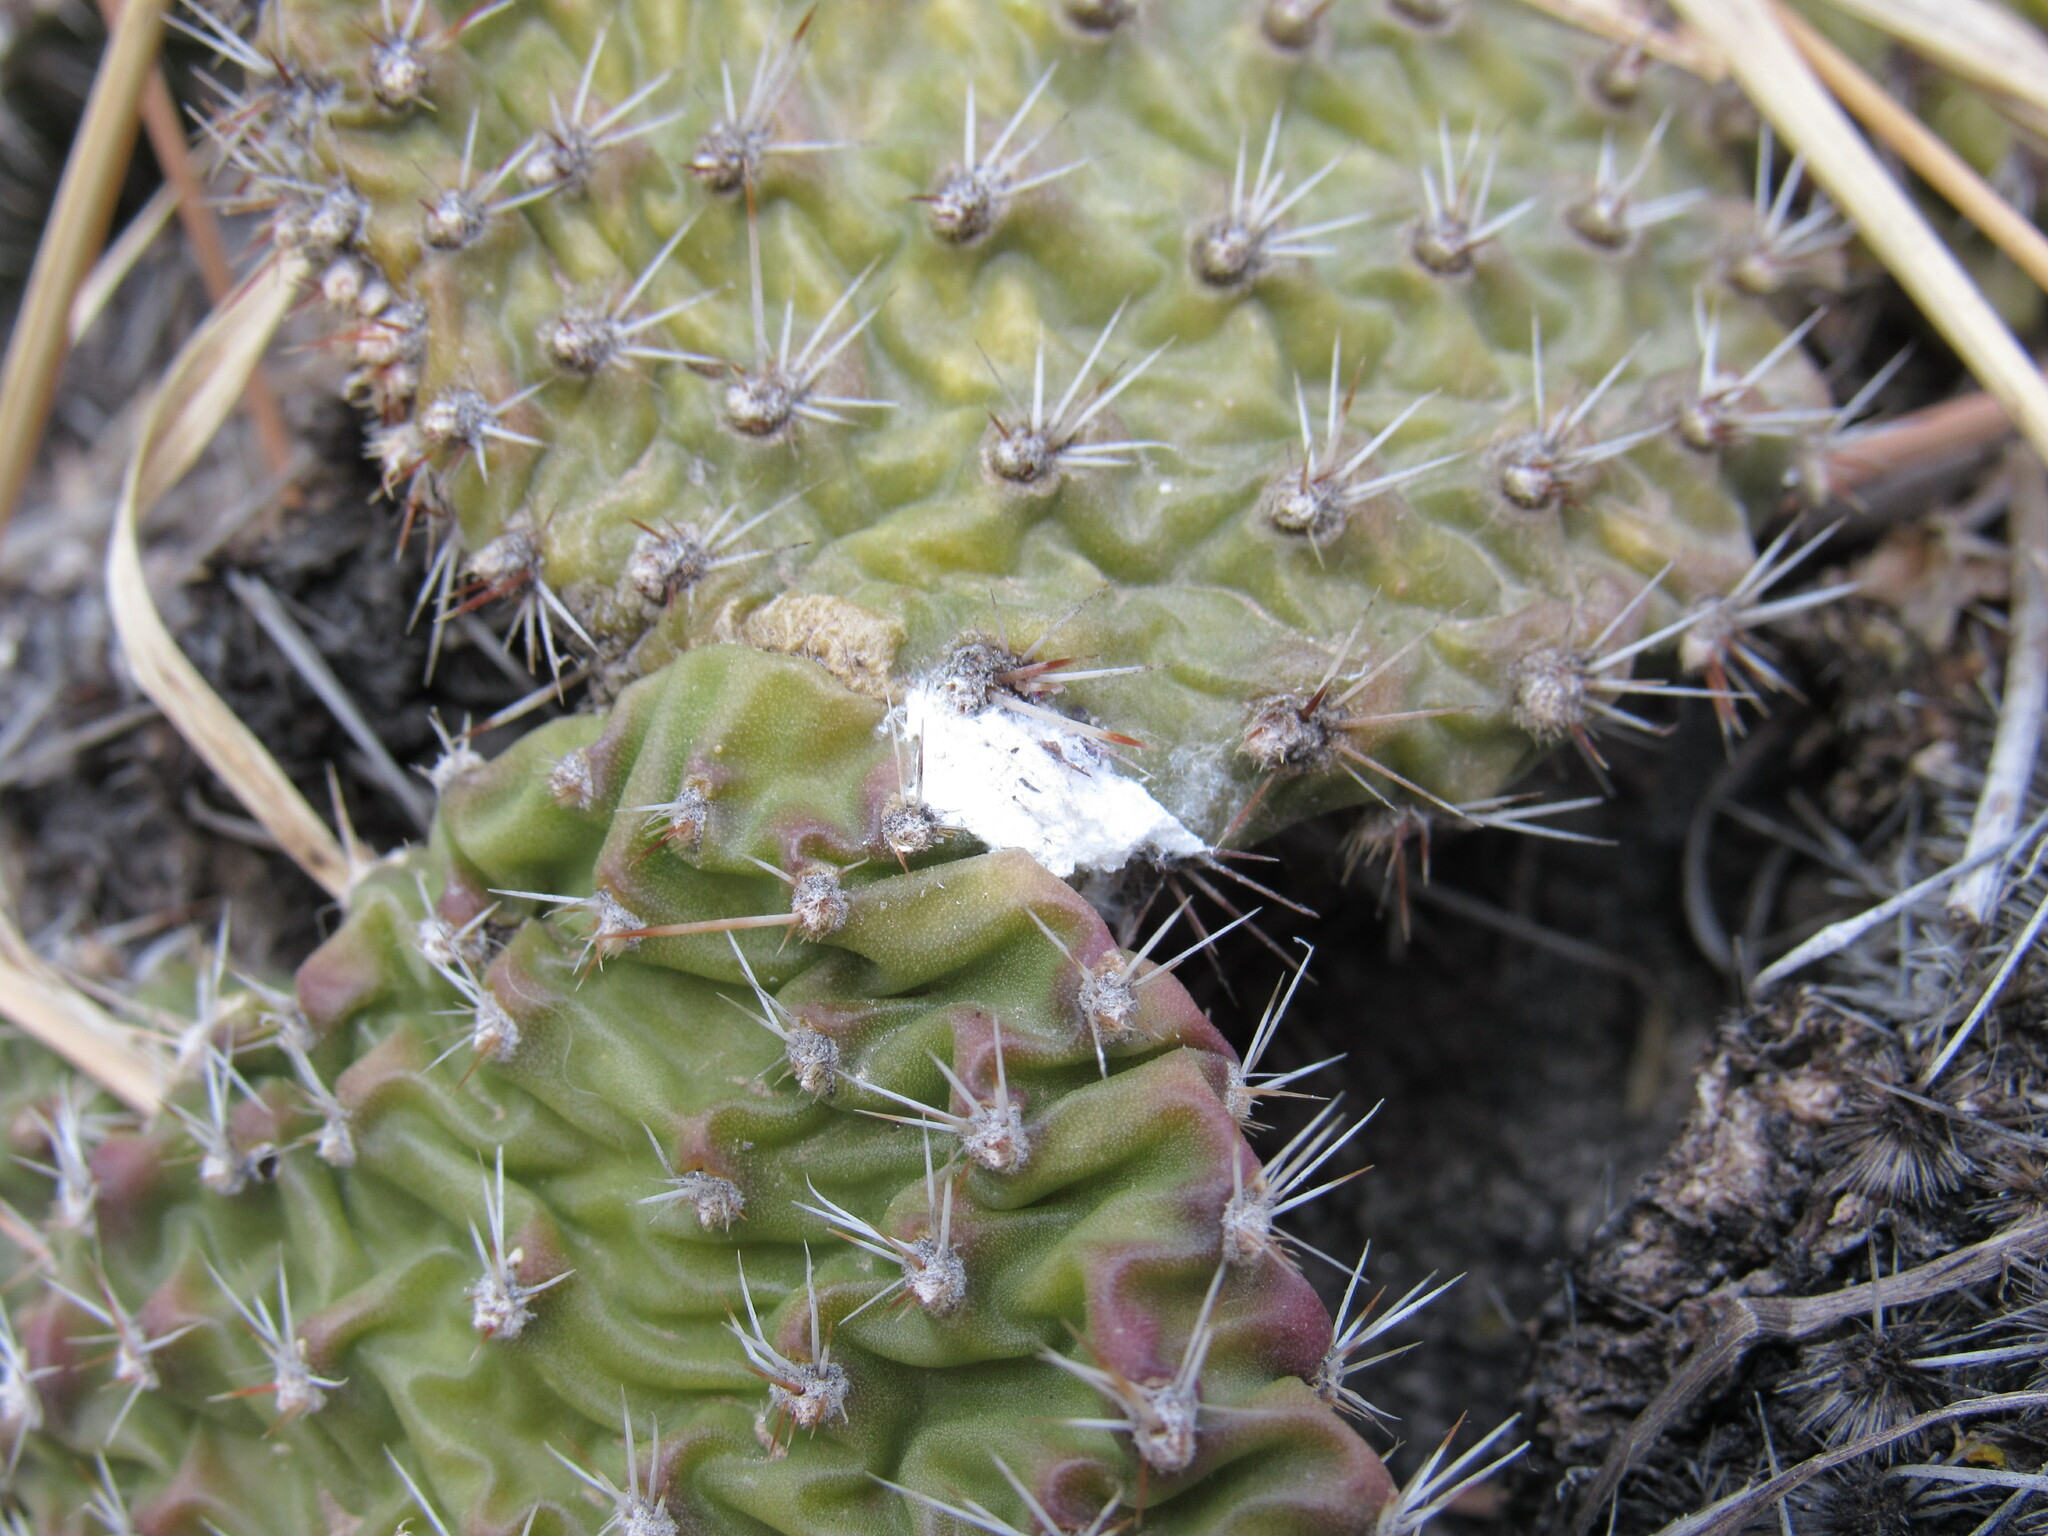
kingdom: Plantae
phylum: Tracheophyta
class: Magnoliopsida
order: Caryophyllales
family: Cactaceae
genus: Opuntia
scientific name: Opuntia polyacantha
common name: Plains prickly-pear
